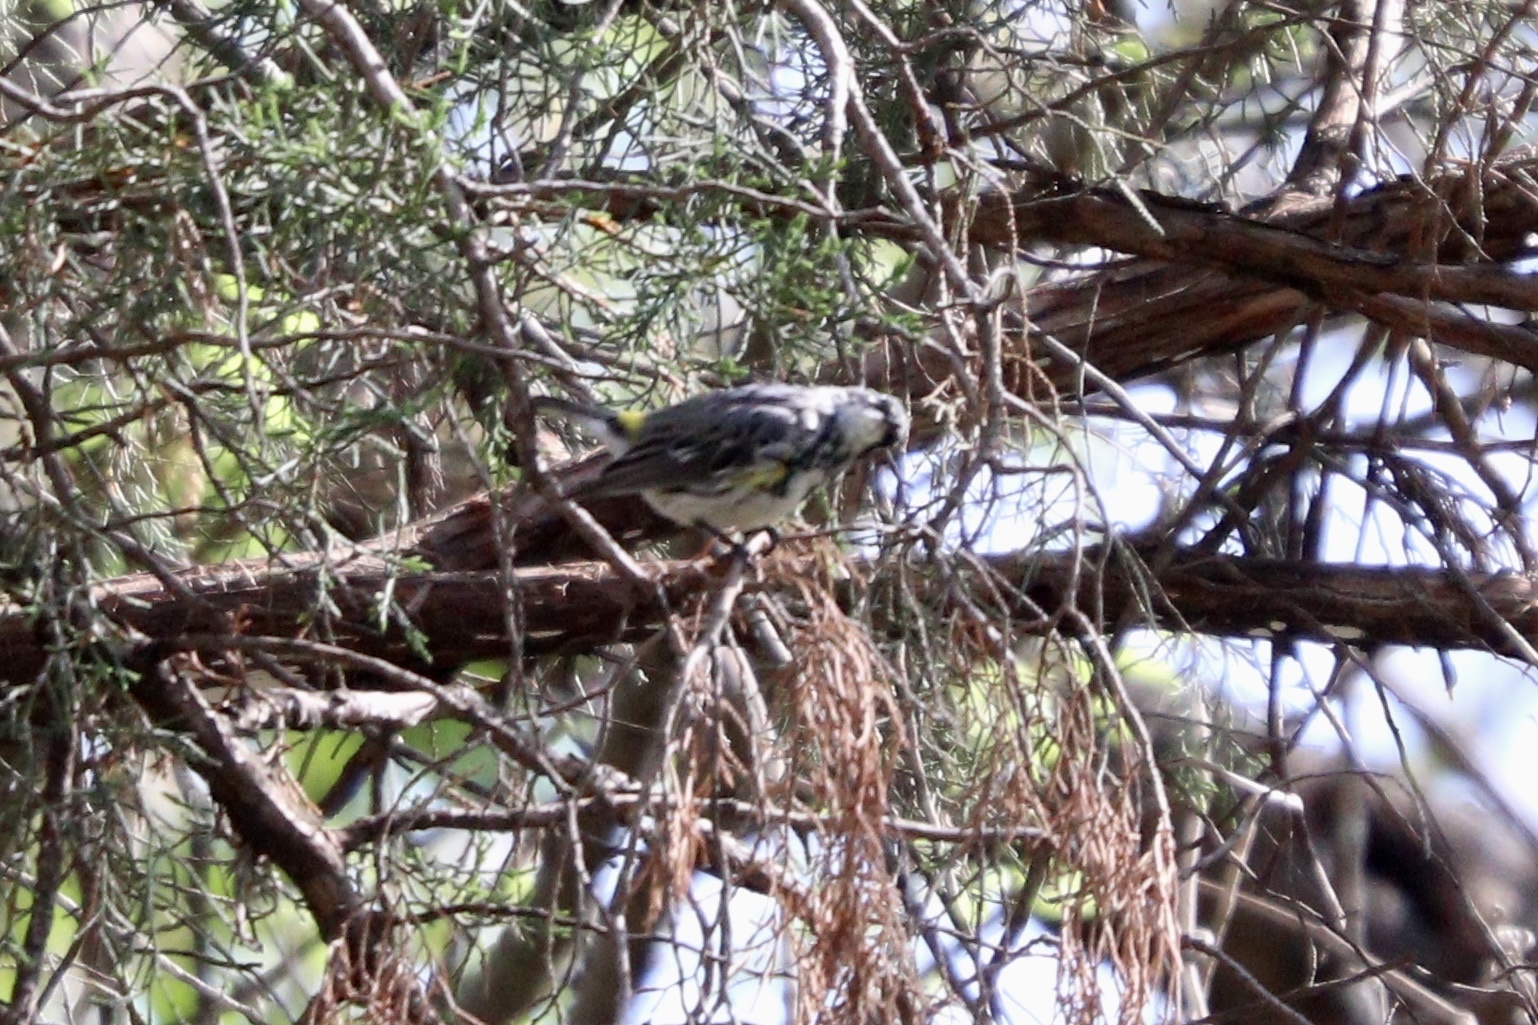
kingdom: Animalia
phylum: Chordata
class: Aves
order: Passeriformes
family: Parulidae
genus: Setophaga
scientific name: Setophaga coronata
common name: Myrtle warbler
